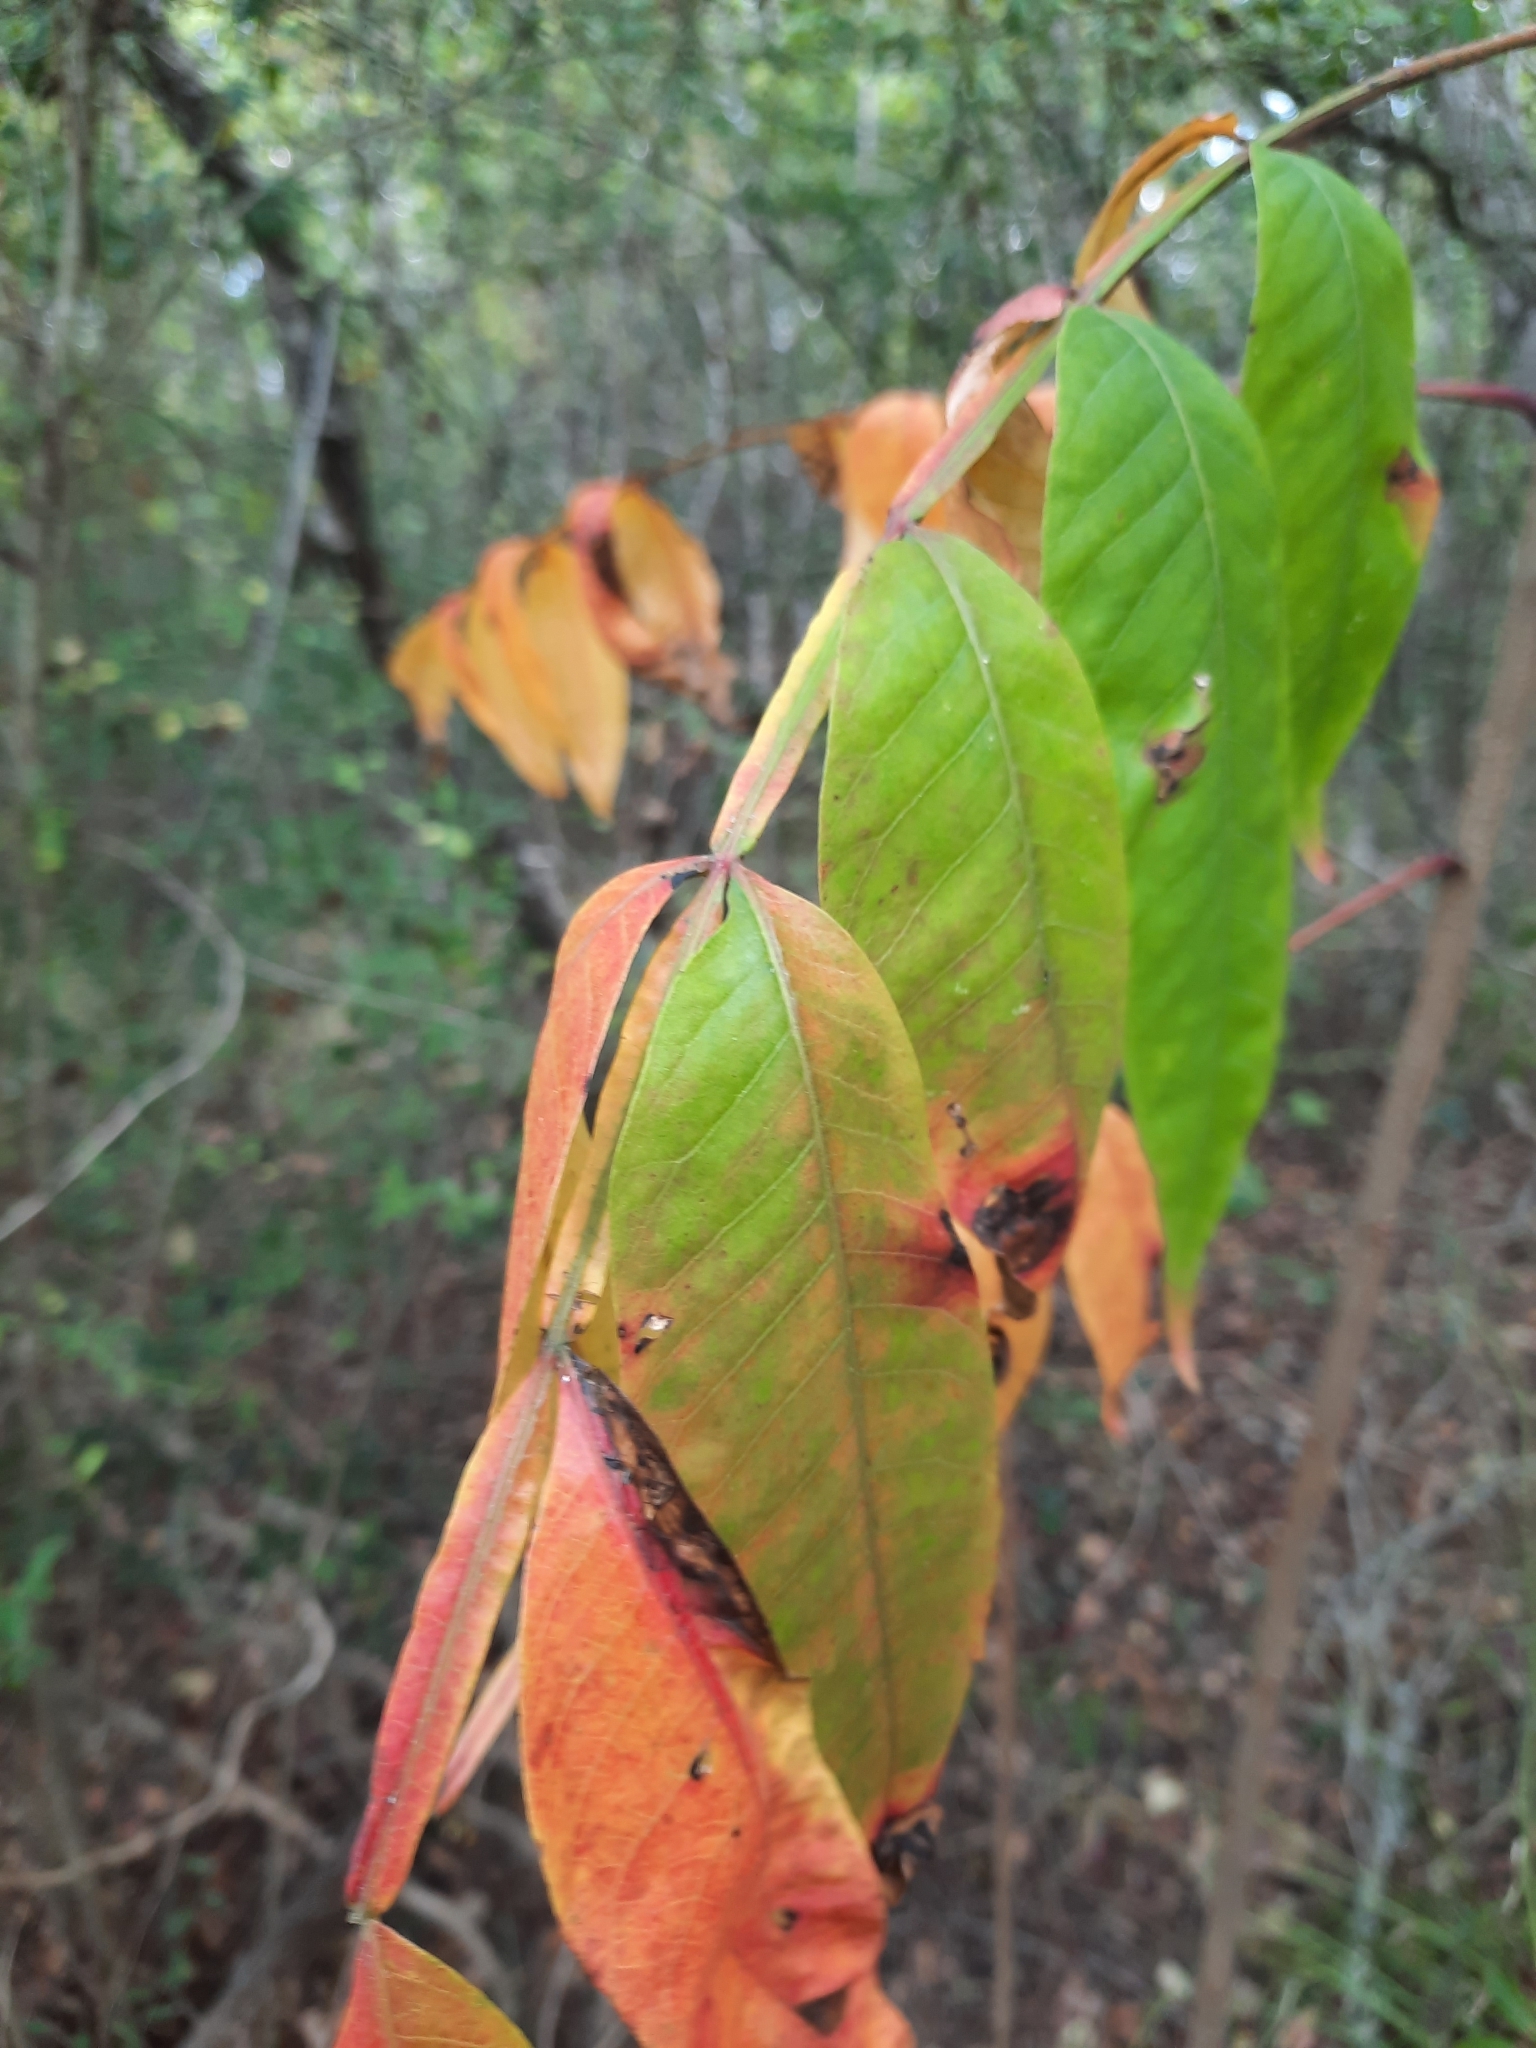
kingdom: Plantae
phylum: Tracheophyta
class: Magnoliopsida
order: Sapindales
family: Anacardiaceae
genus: Rhus
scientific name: Rhus copallina
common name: Shining sumac
